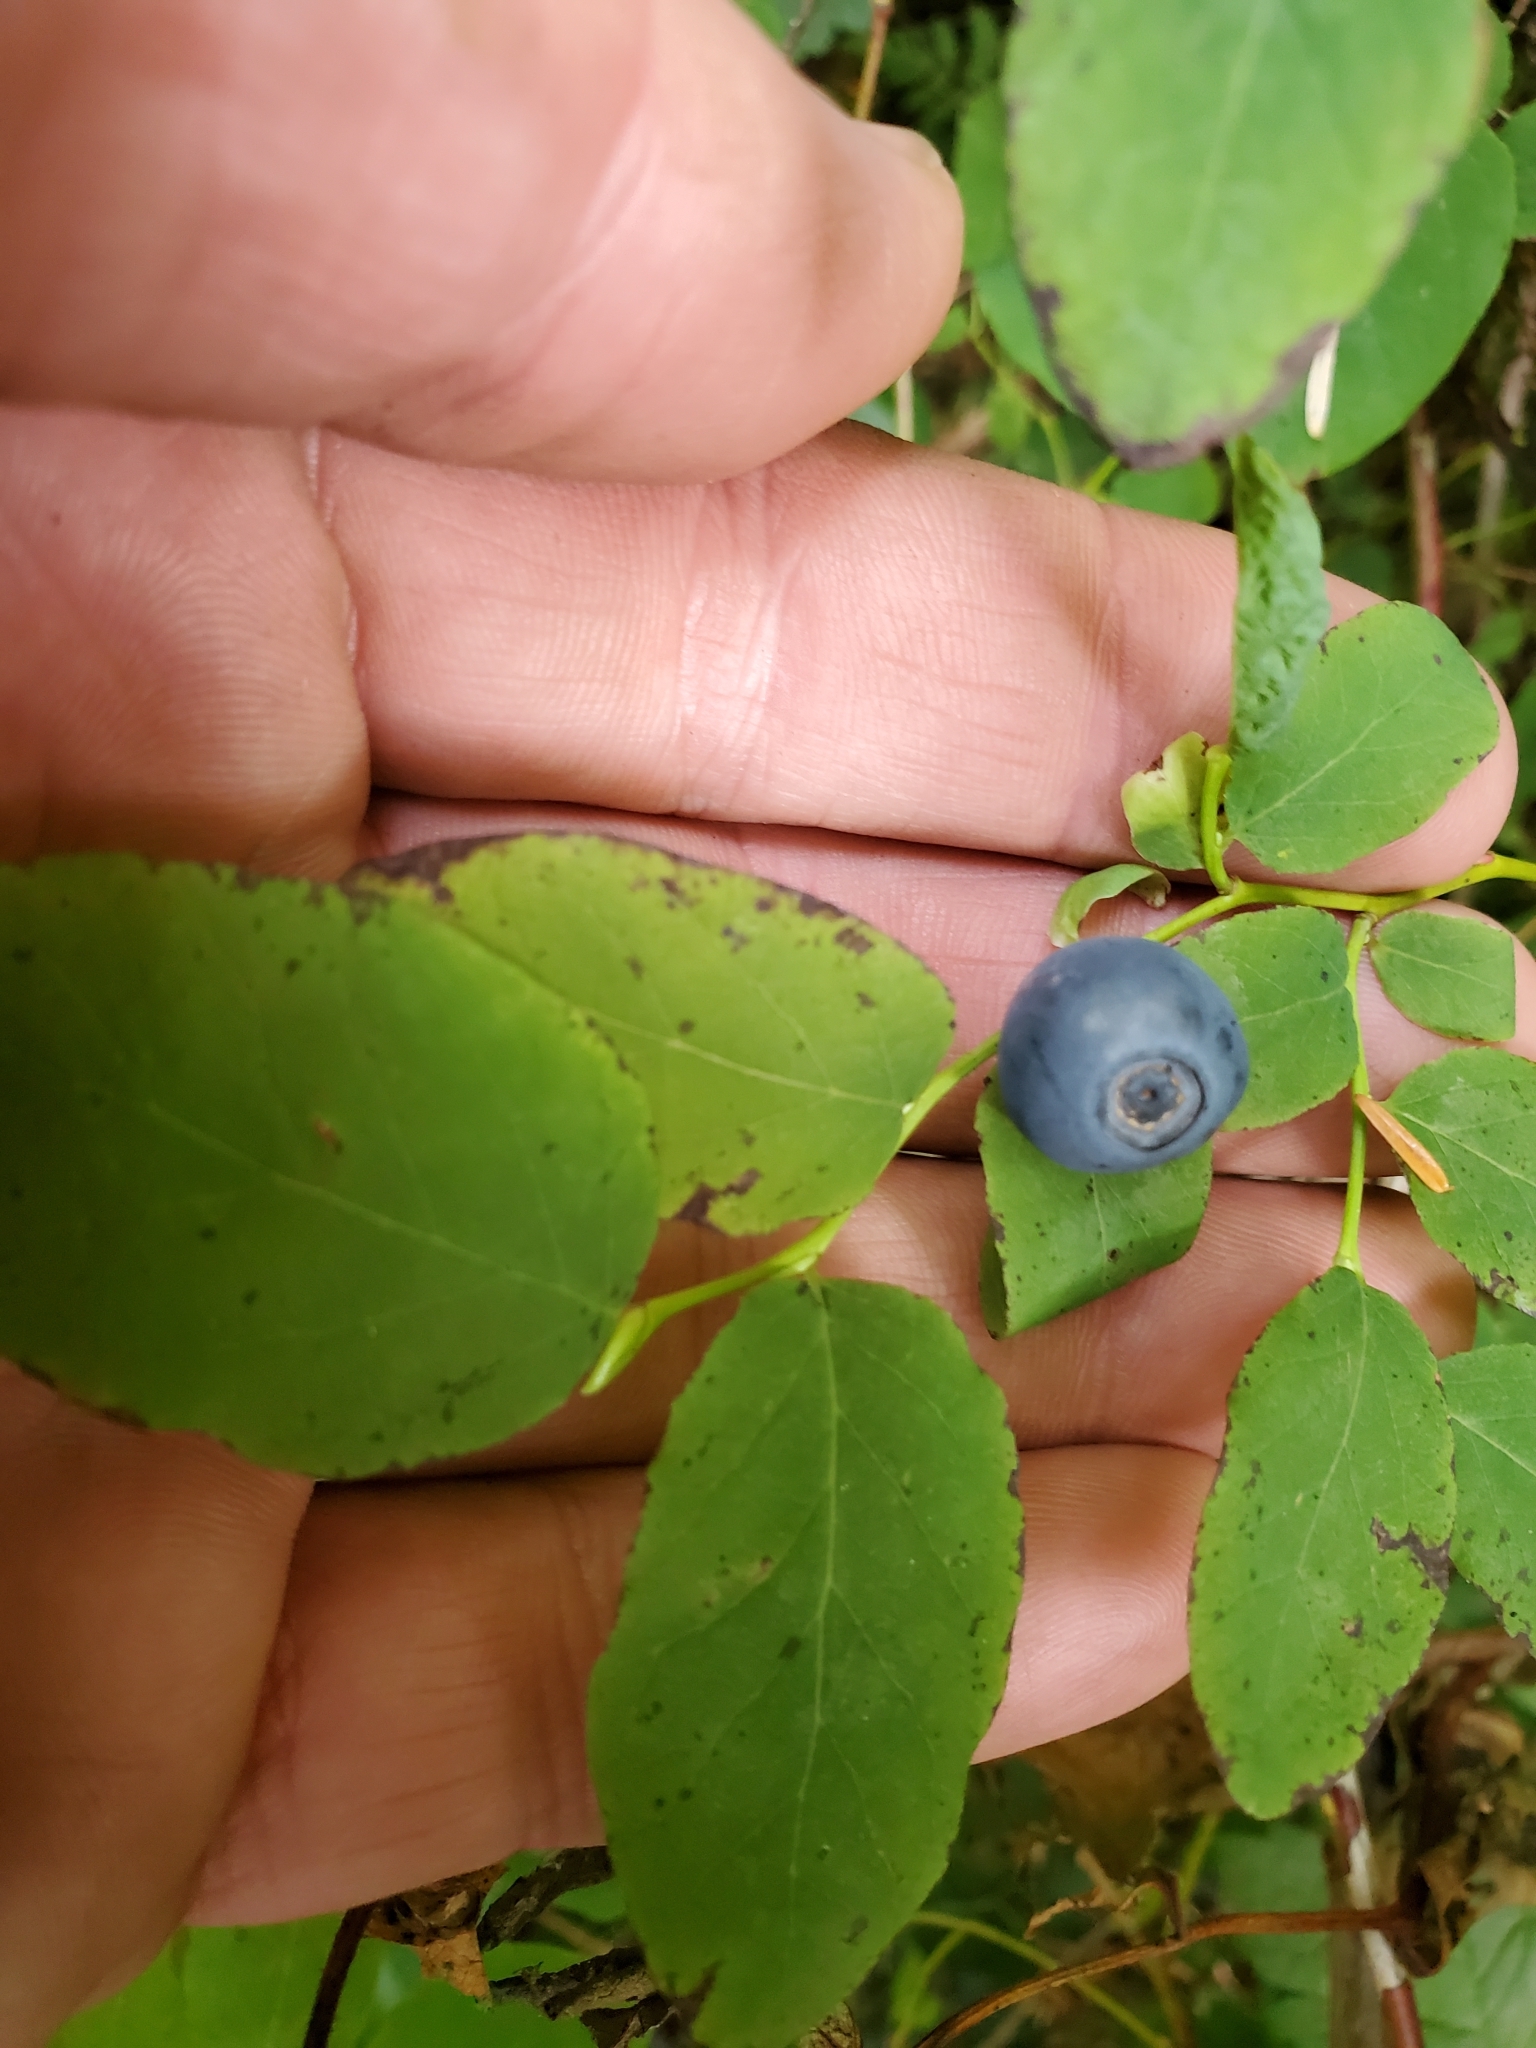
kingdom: Plantae
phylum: Tracheophyta
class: Magnoliopsida
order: Ericales
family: Ericaceae
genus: Vaccinium
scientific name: Vaccinium ovalifolium
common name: Early blueberry
